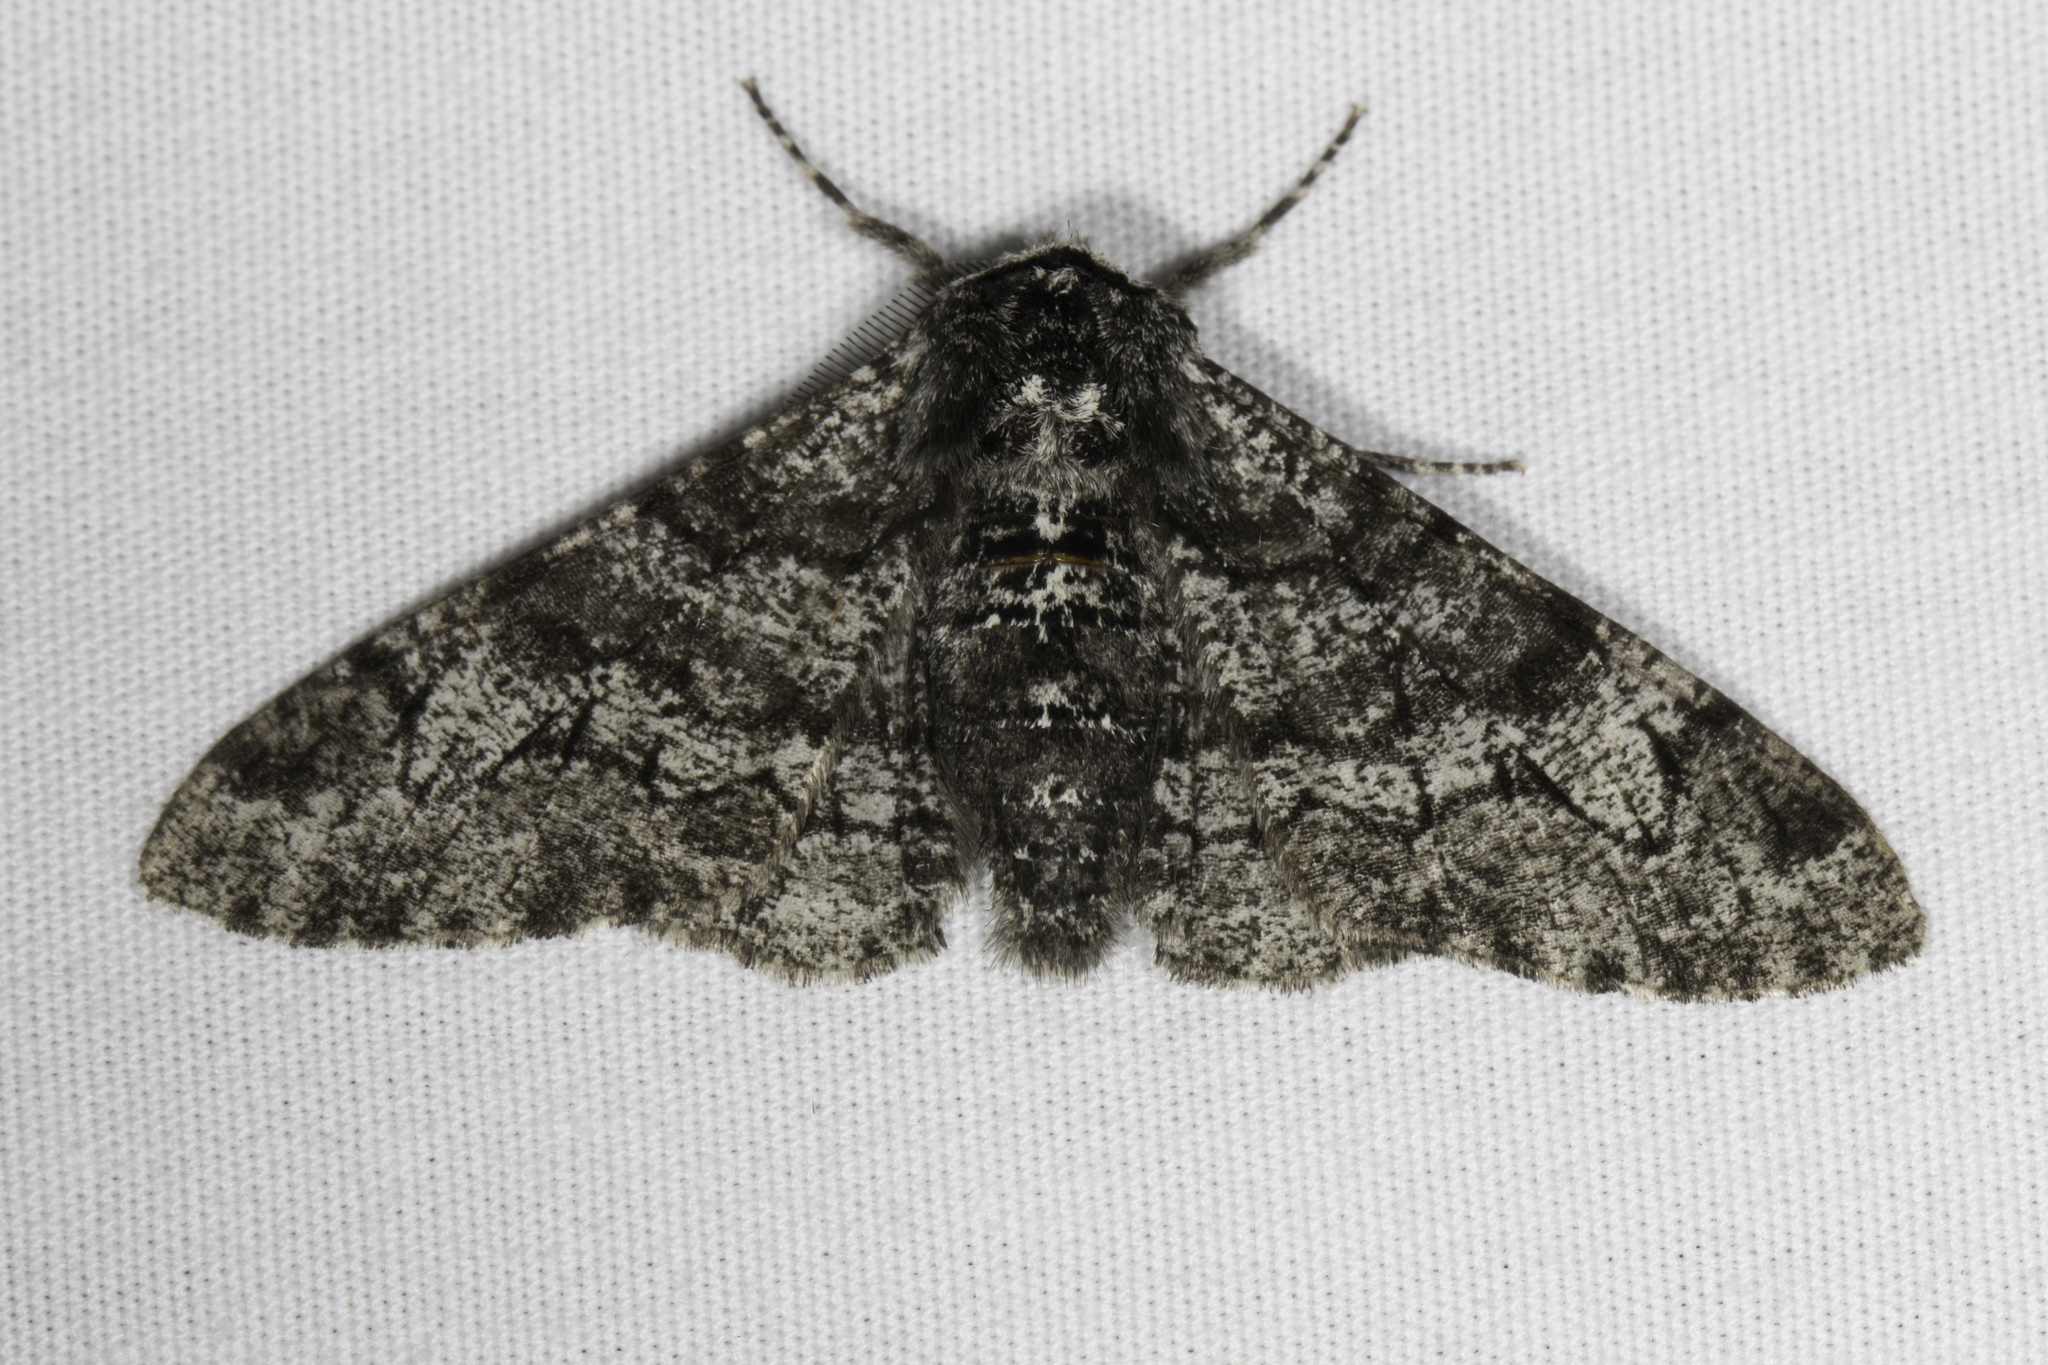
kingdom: Animalia
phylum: Arthropoda
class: Insecta
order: Lepidoptera
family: Geometridae
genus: Biston
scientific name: Biston betularia
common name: Peppered moth
